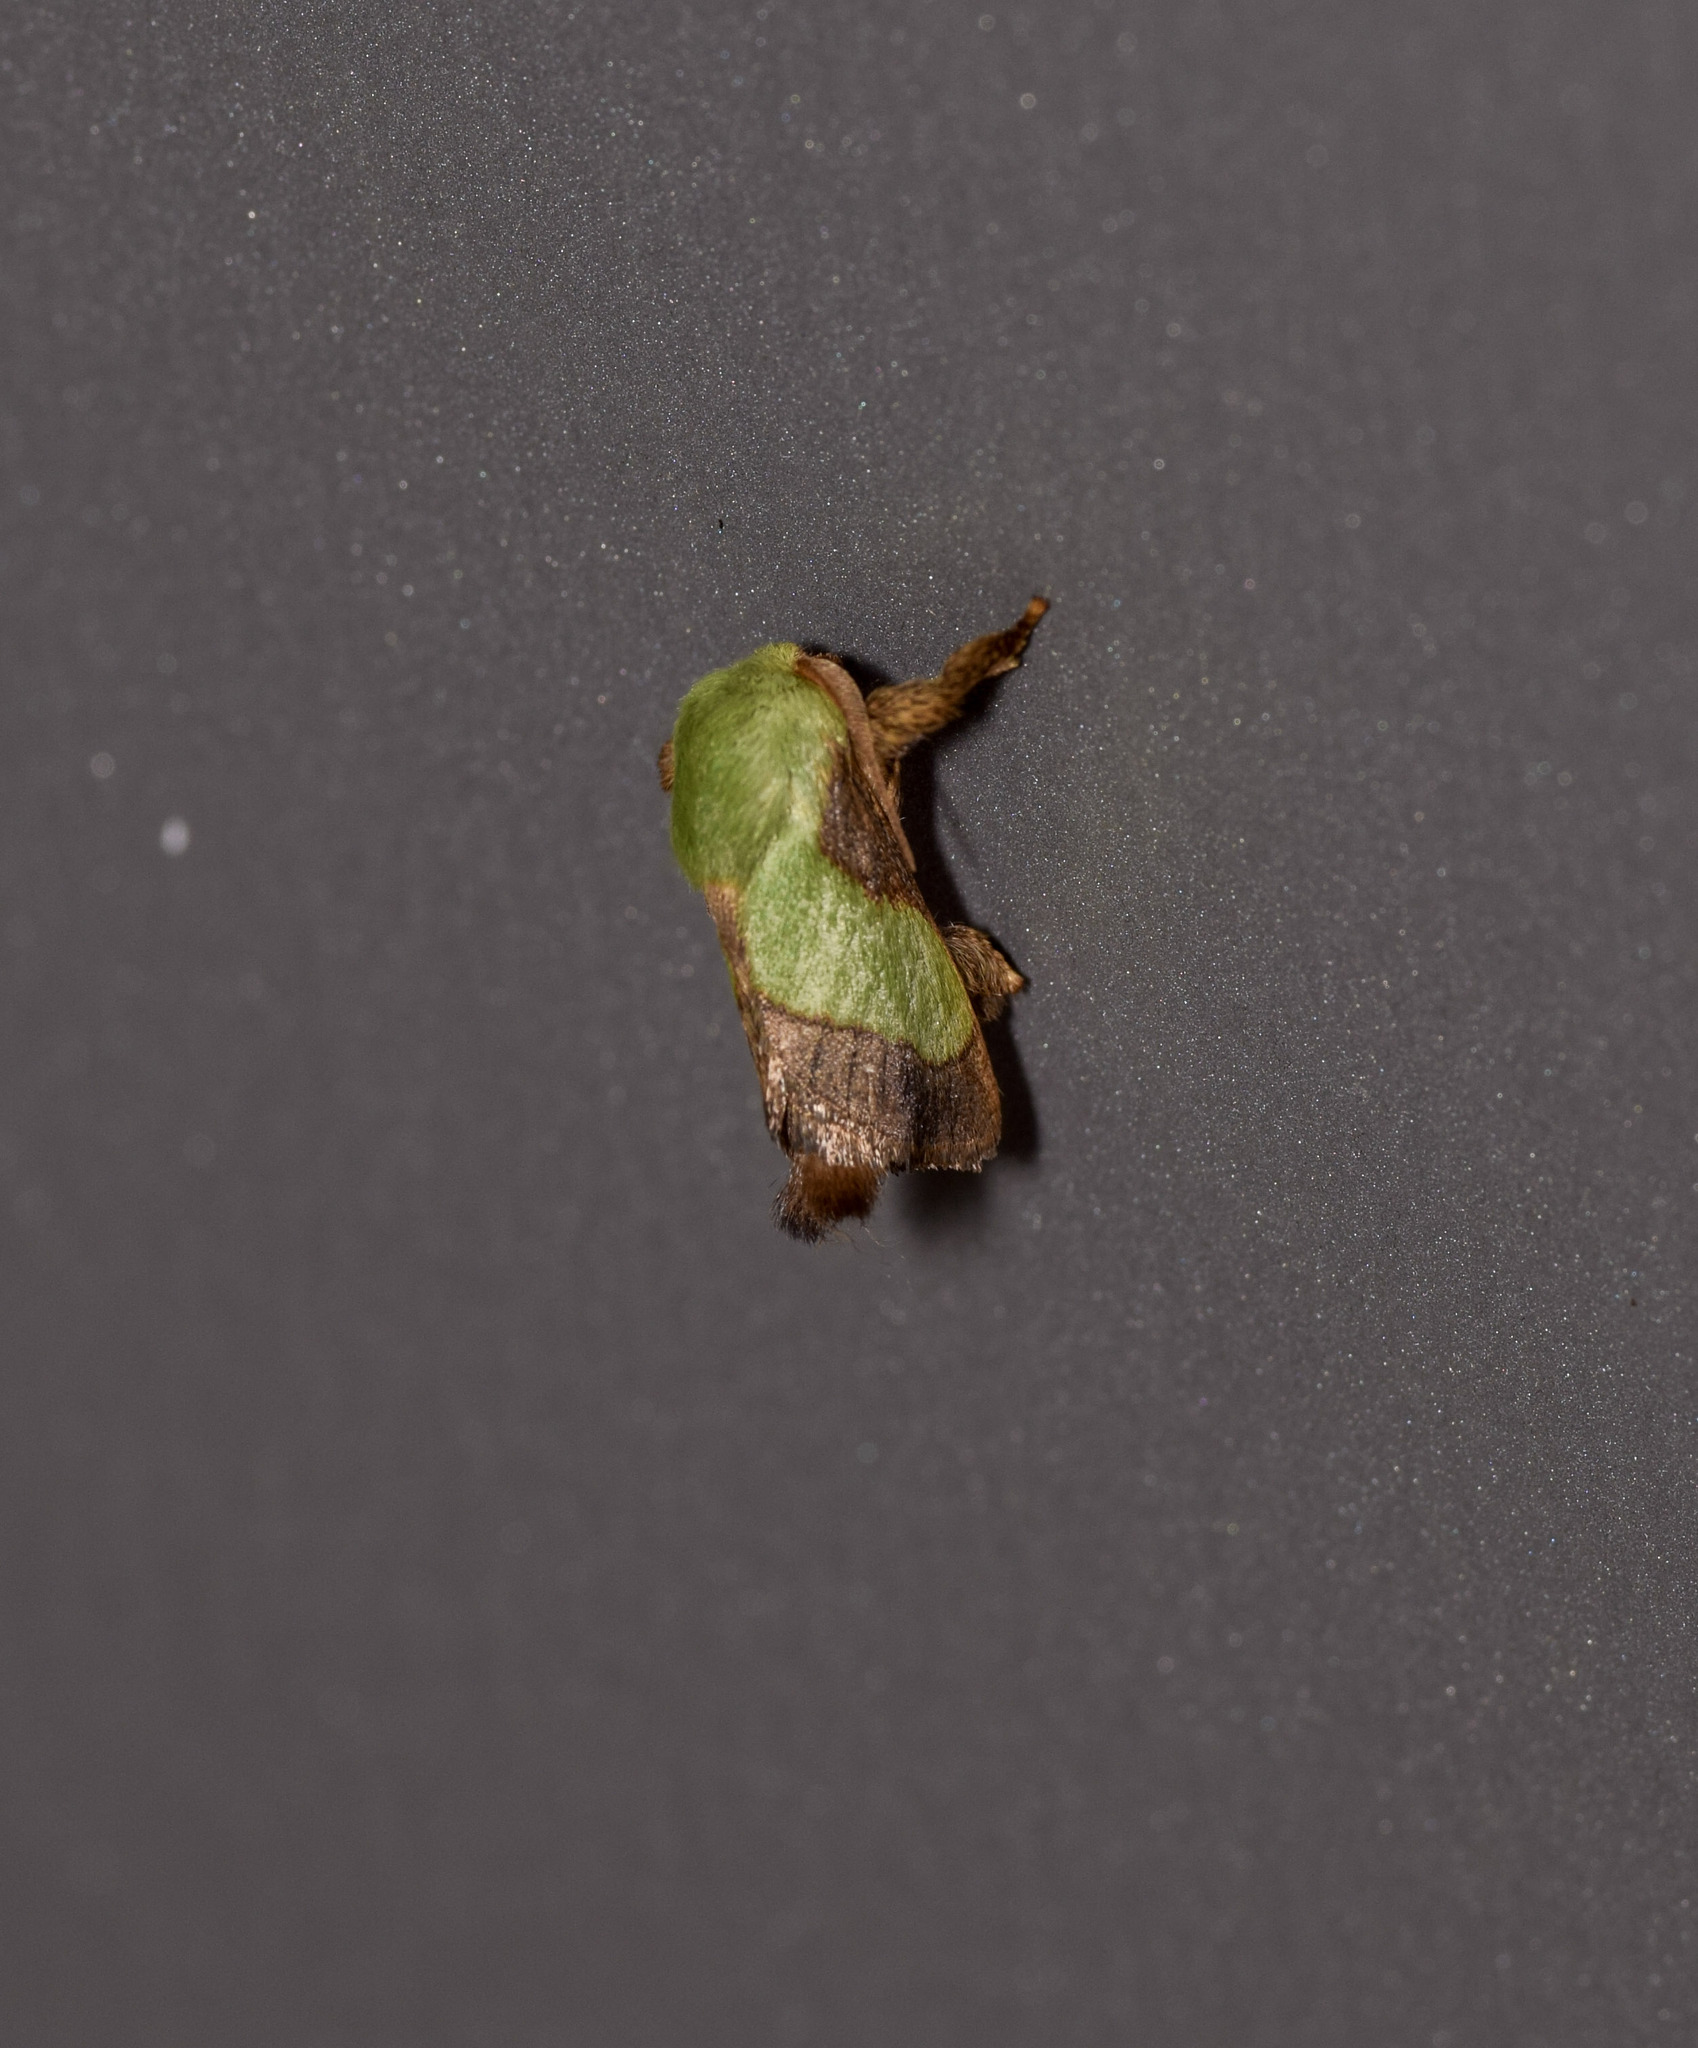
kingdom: Animalia
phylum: Arthropoda
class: Insecta
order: Lepidoptera
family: Limacodidae
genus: Parasa
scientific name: Parasa chloris
